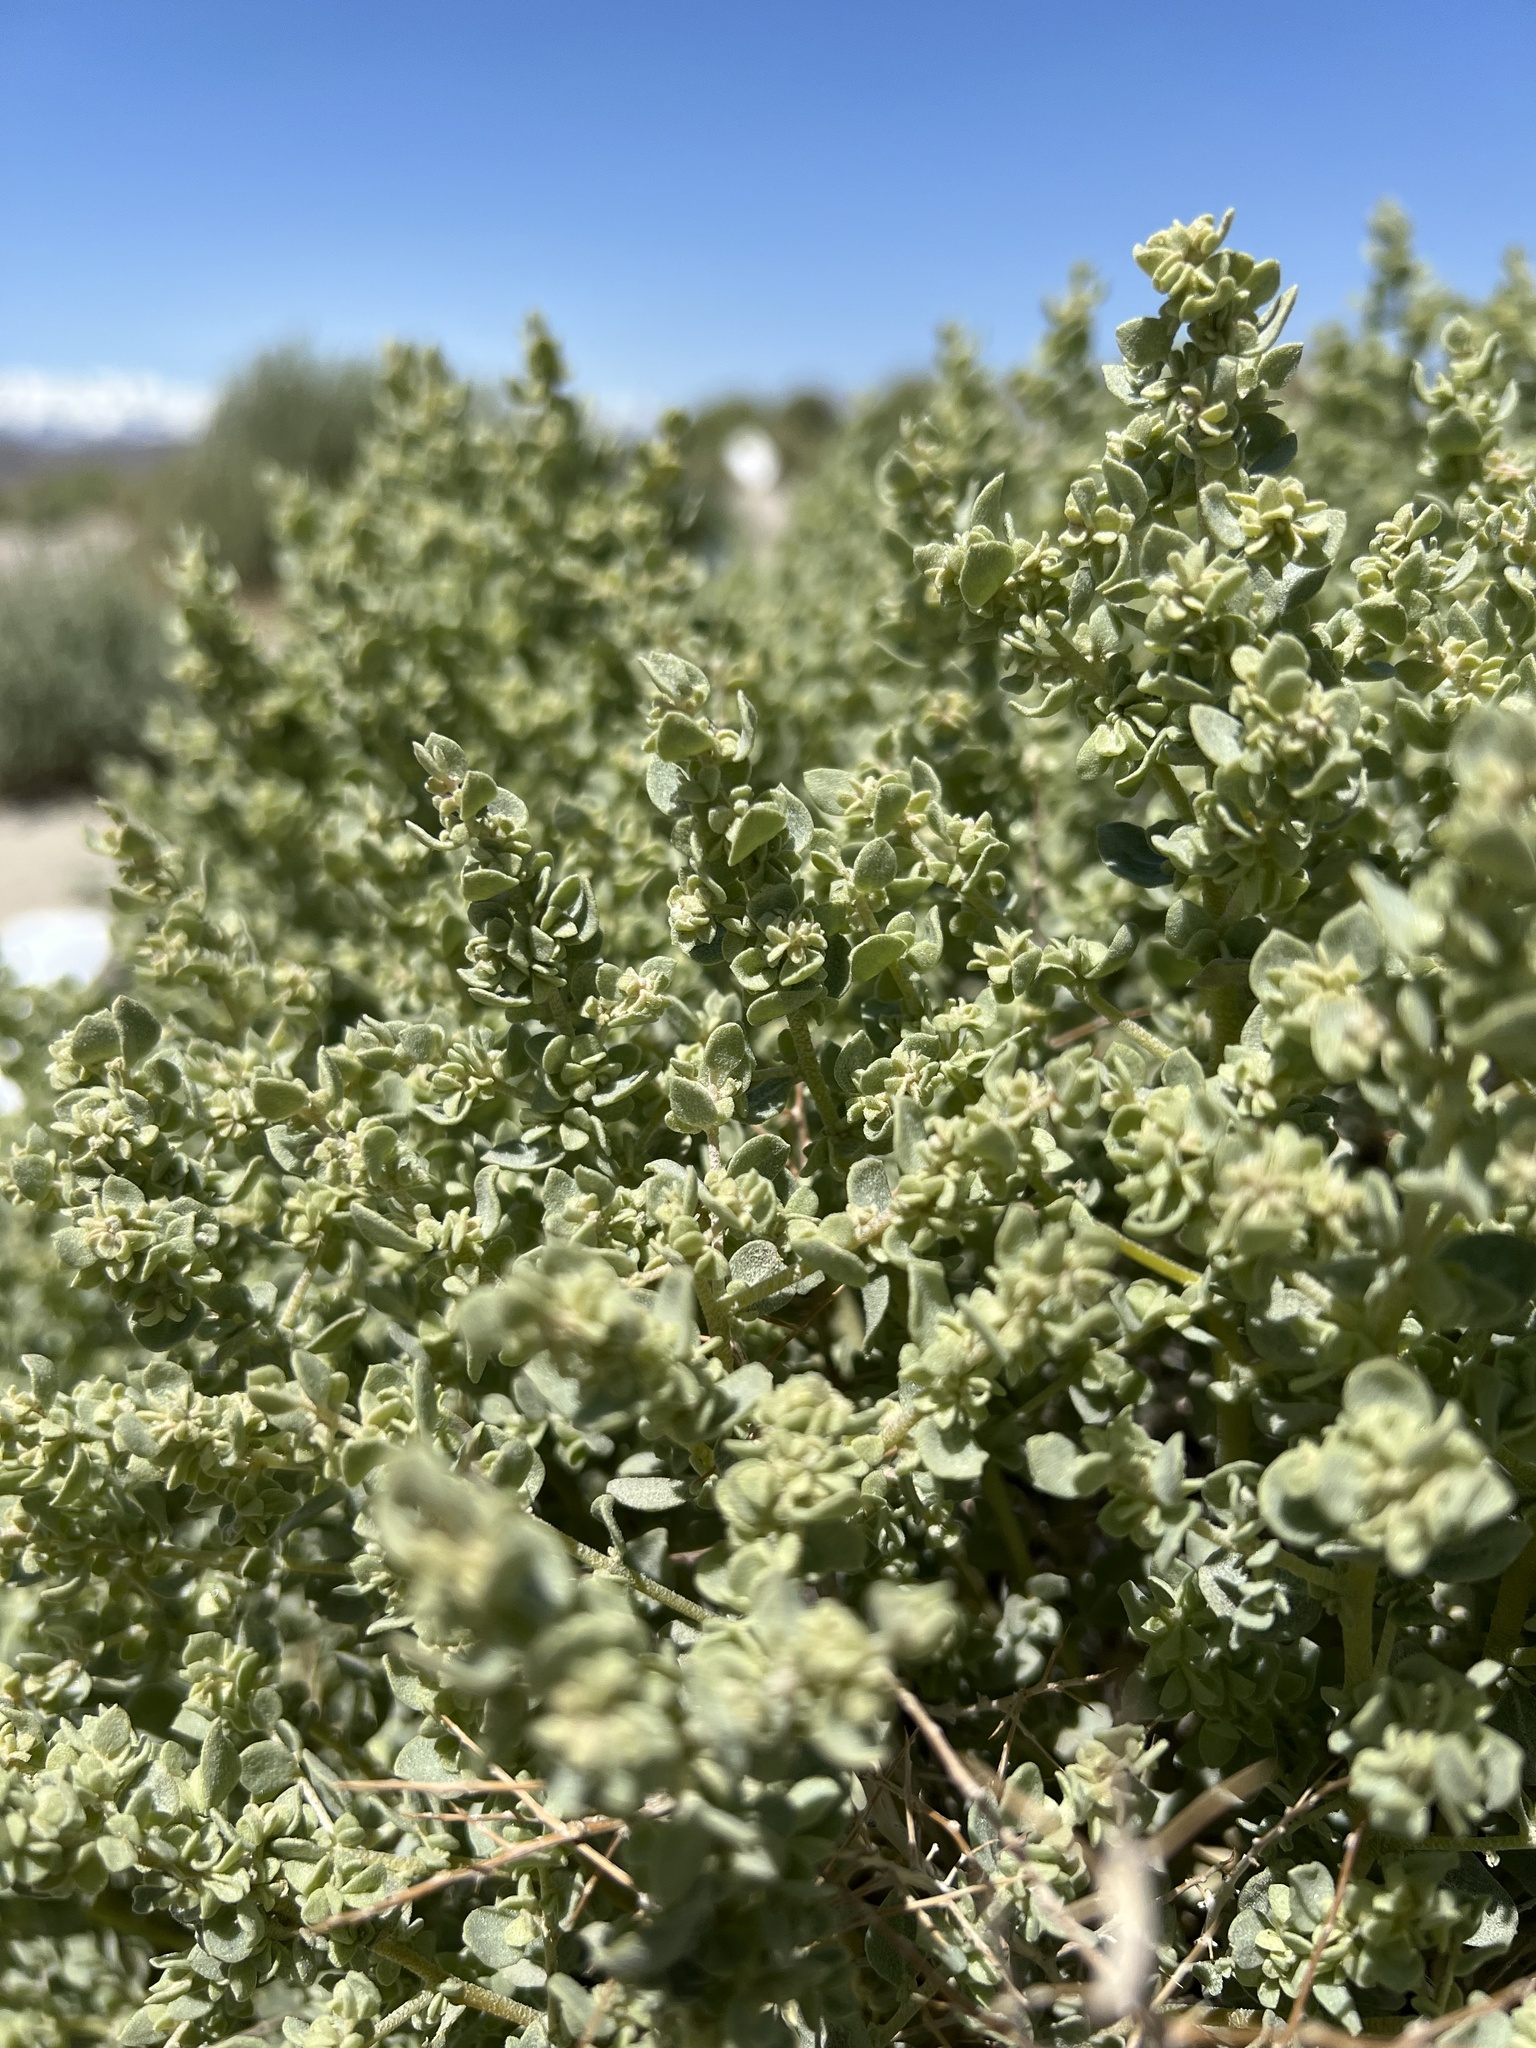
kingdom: Plantae
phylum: Tracheophyta
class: Magnoliopsida
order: Caryophyllales
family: Amaranthaceae
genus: Atriplex
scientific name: Atriplex confertifolia
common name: Shadscale
